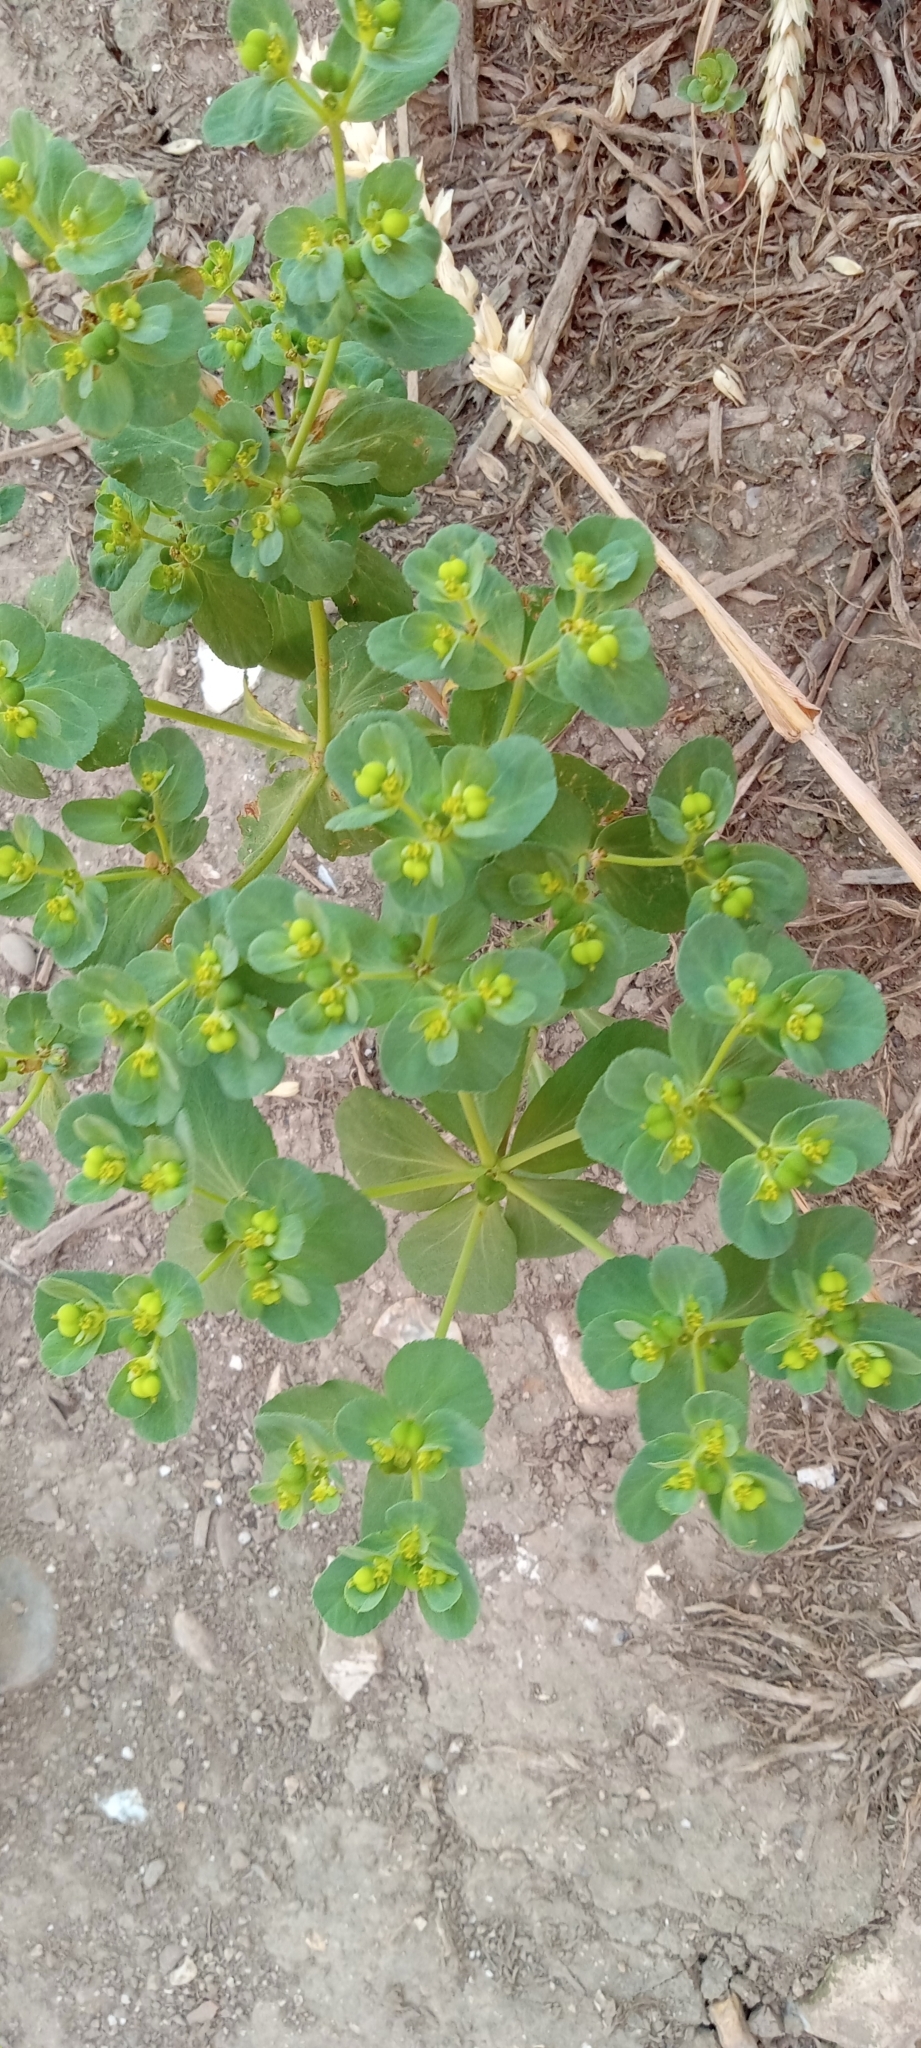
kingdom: Plantae
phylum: Tracheophyta
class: Magnoliopsida
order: Malpighiales
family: Euphorbiaceae
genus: Euphorbia
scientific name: Euphorbia helioscopia
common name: Sun spurge
